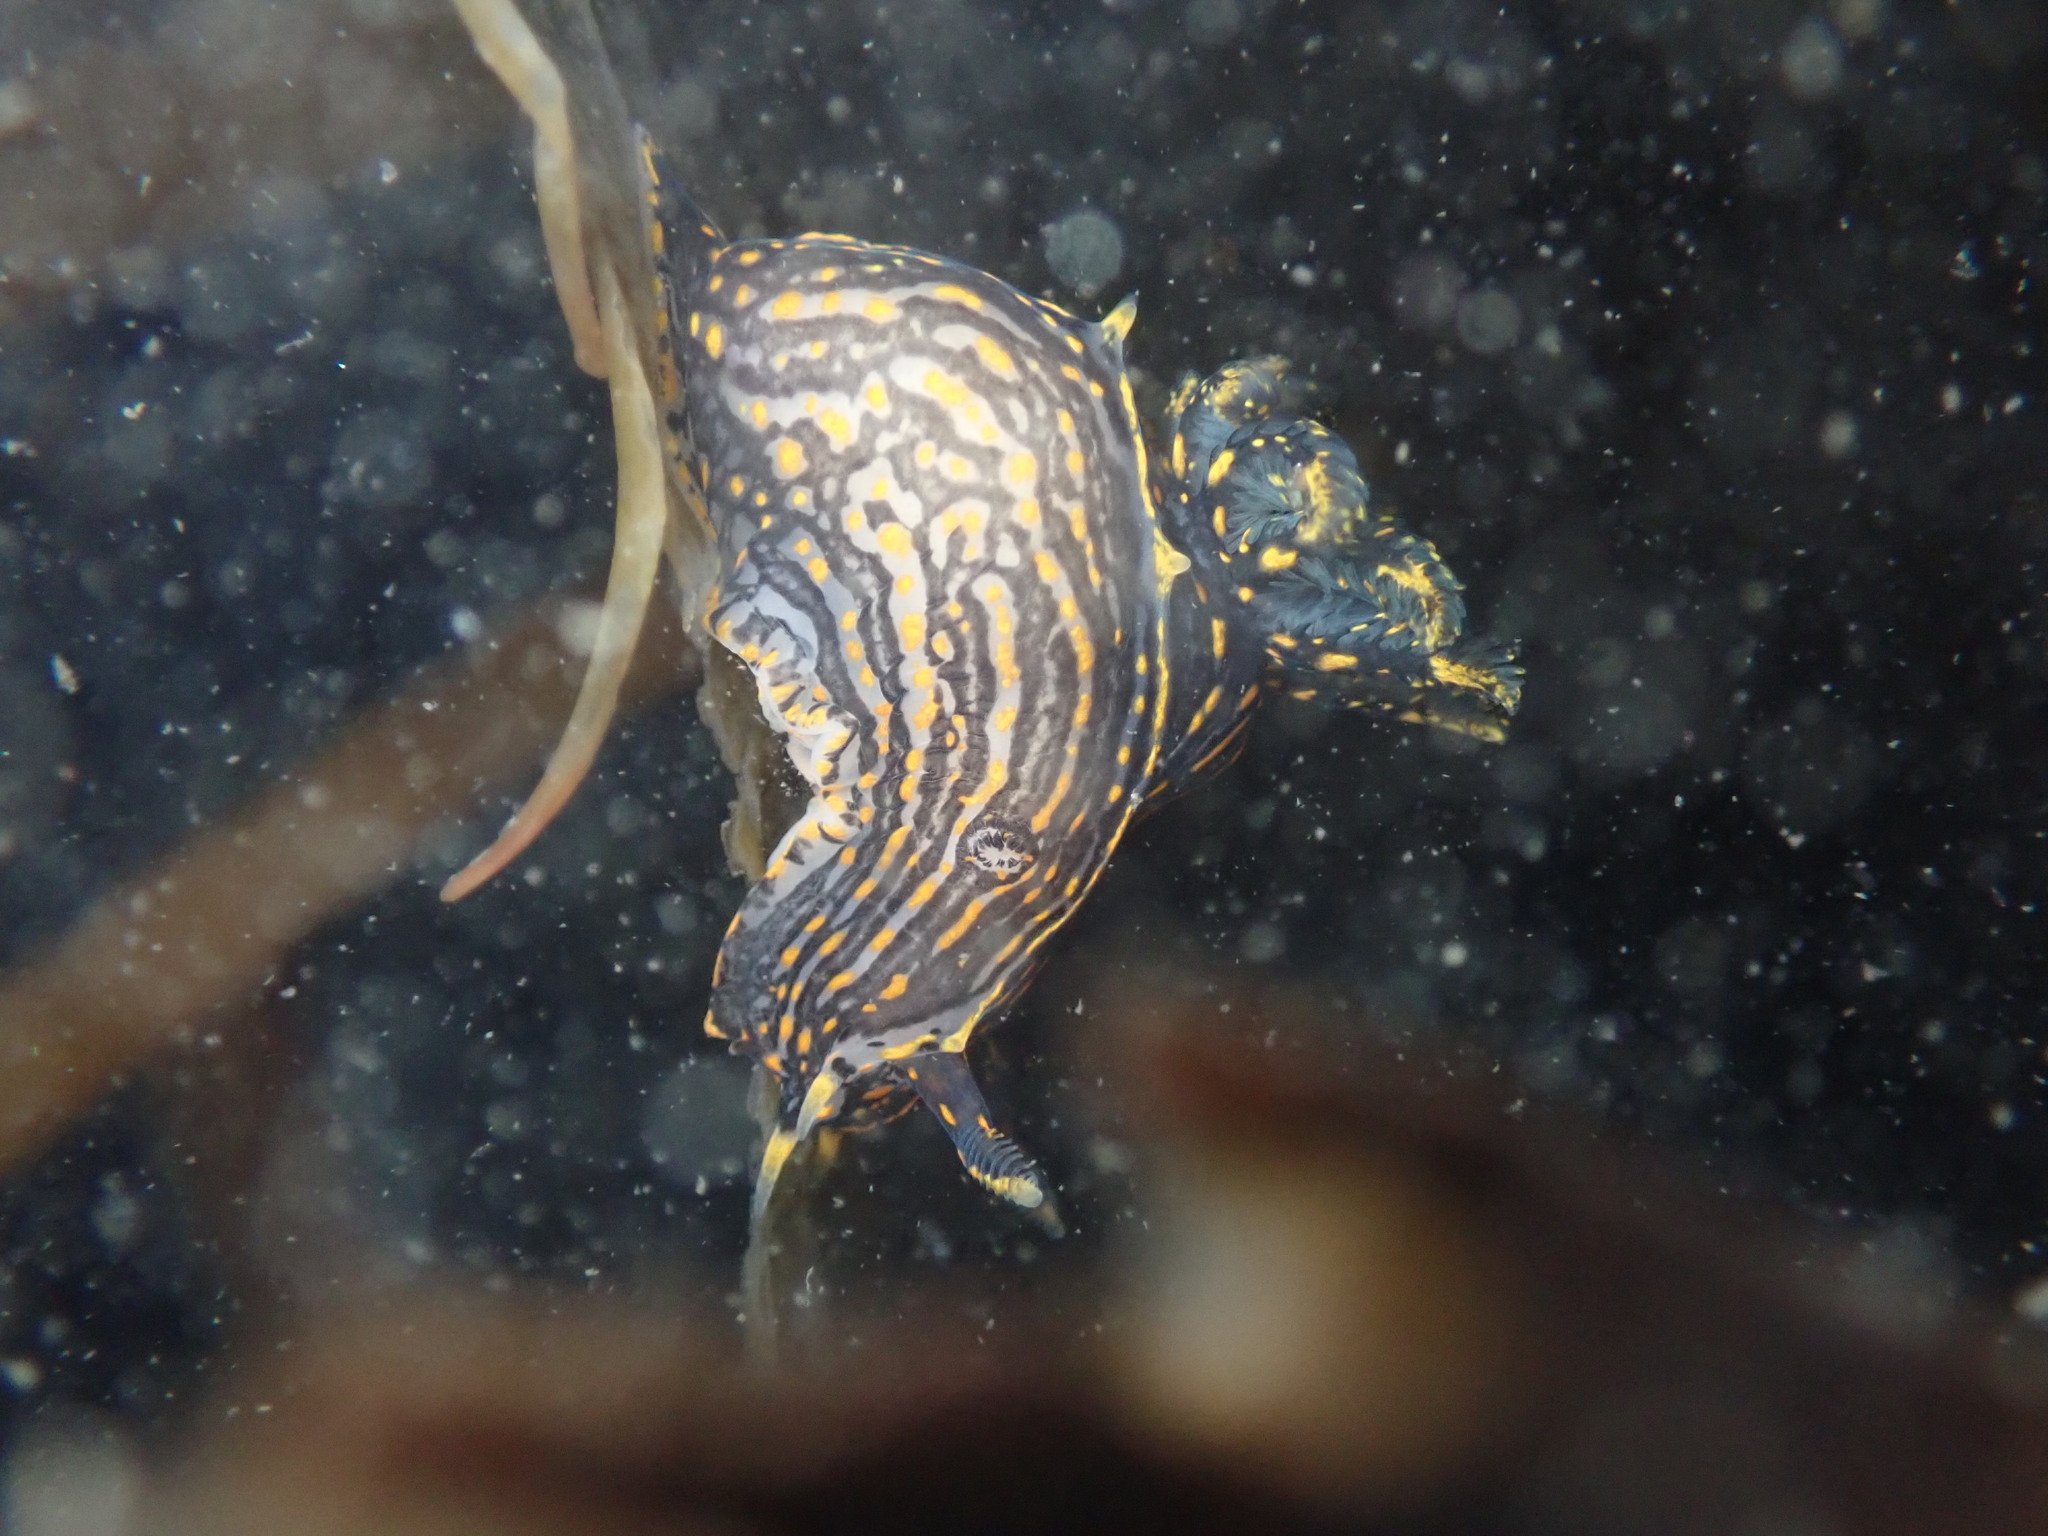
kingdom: Animalia
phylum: Mollusca
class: Gastropoda
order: Nudibranchia
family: Polyceridae
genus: Polycera
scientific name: Polycera atra
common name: Orange-spike polycera
